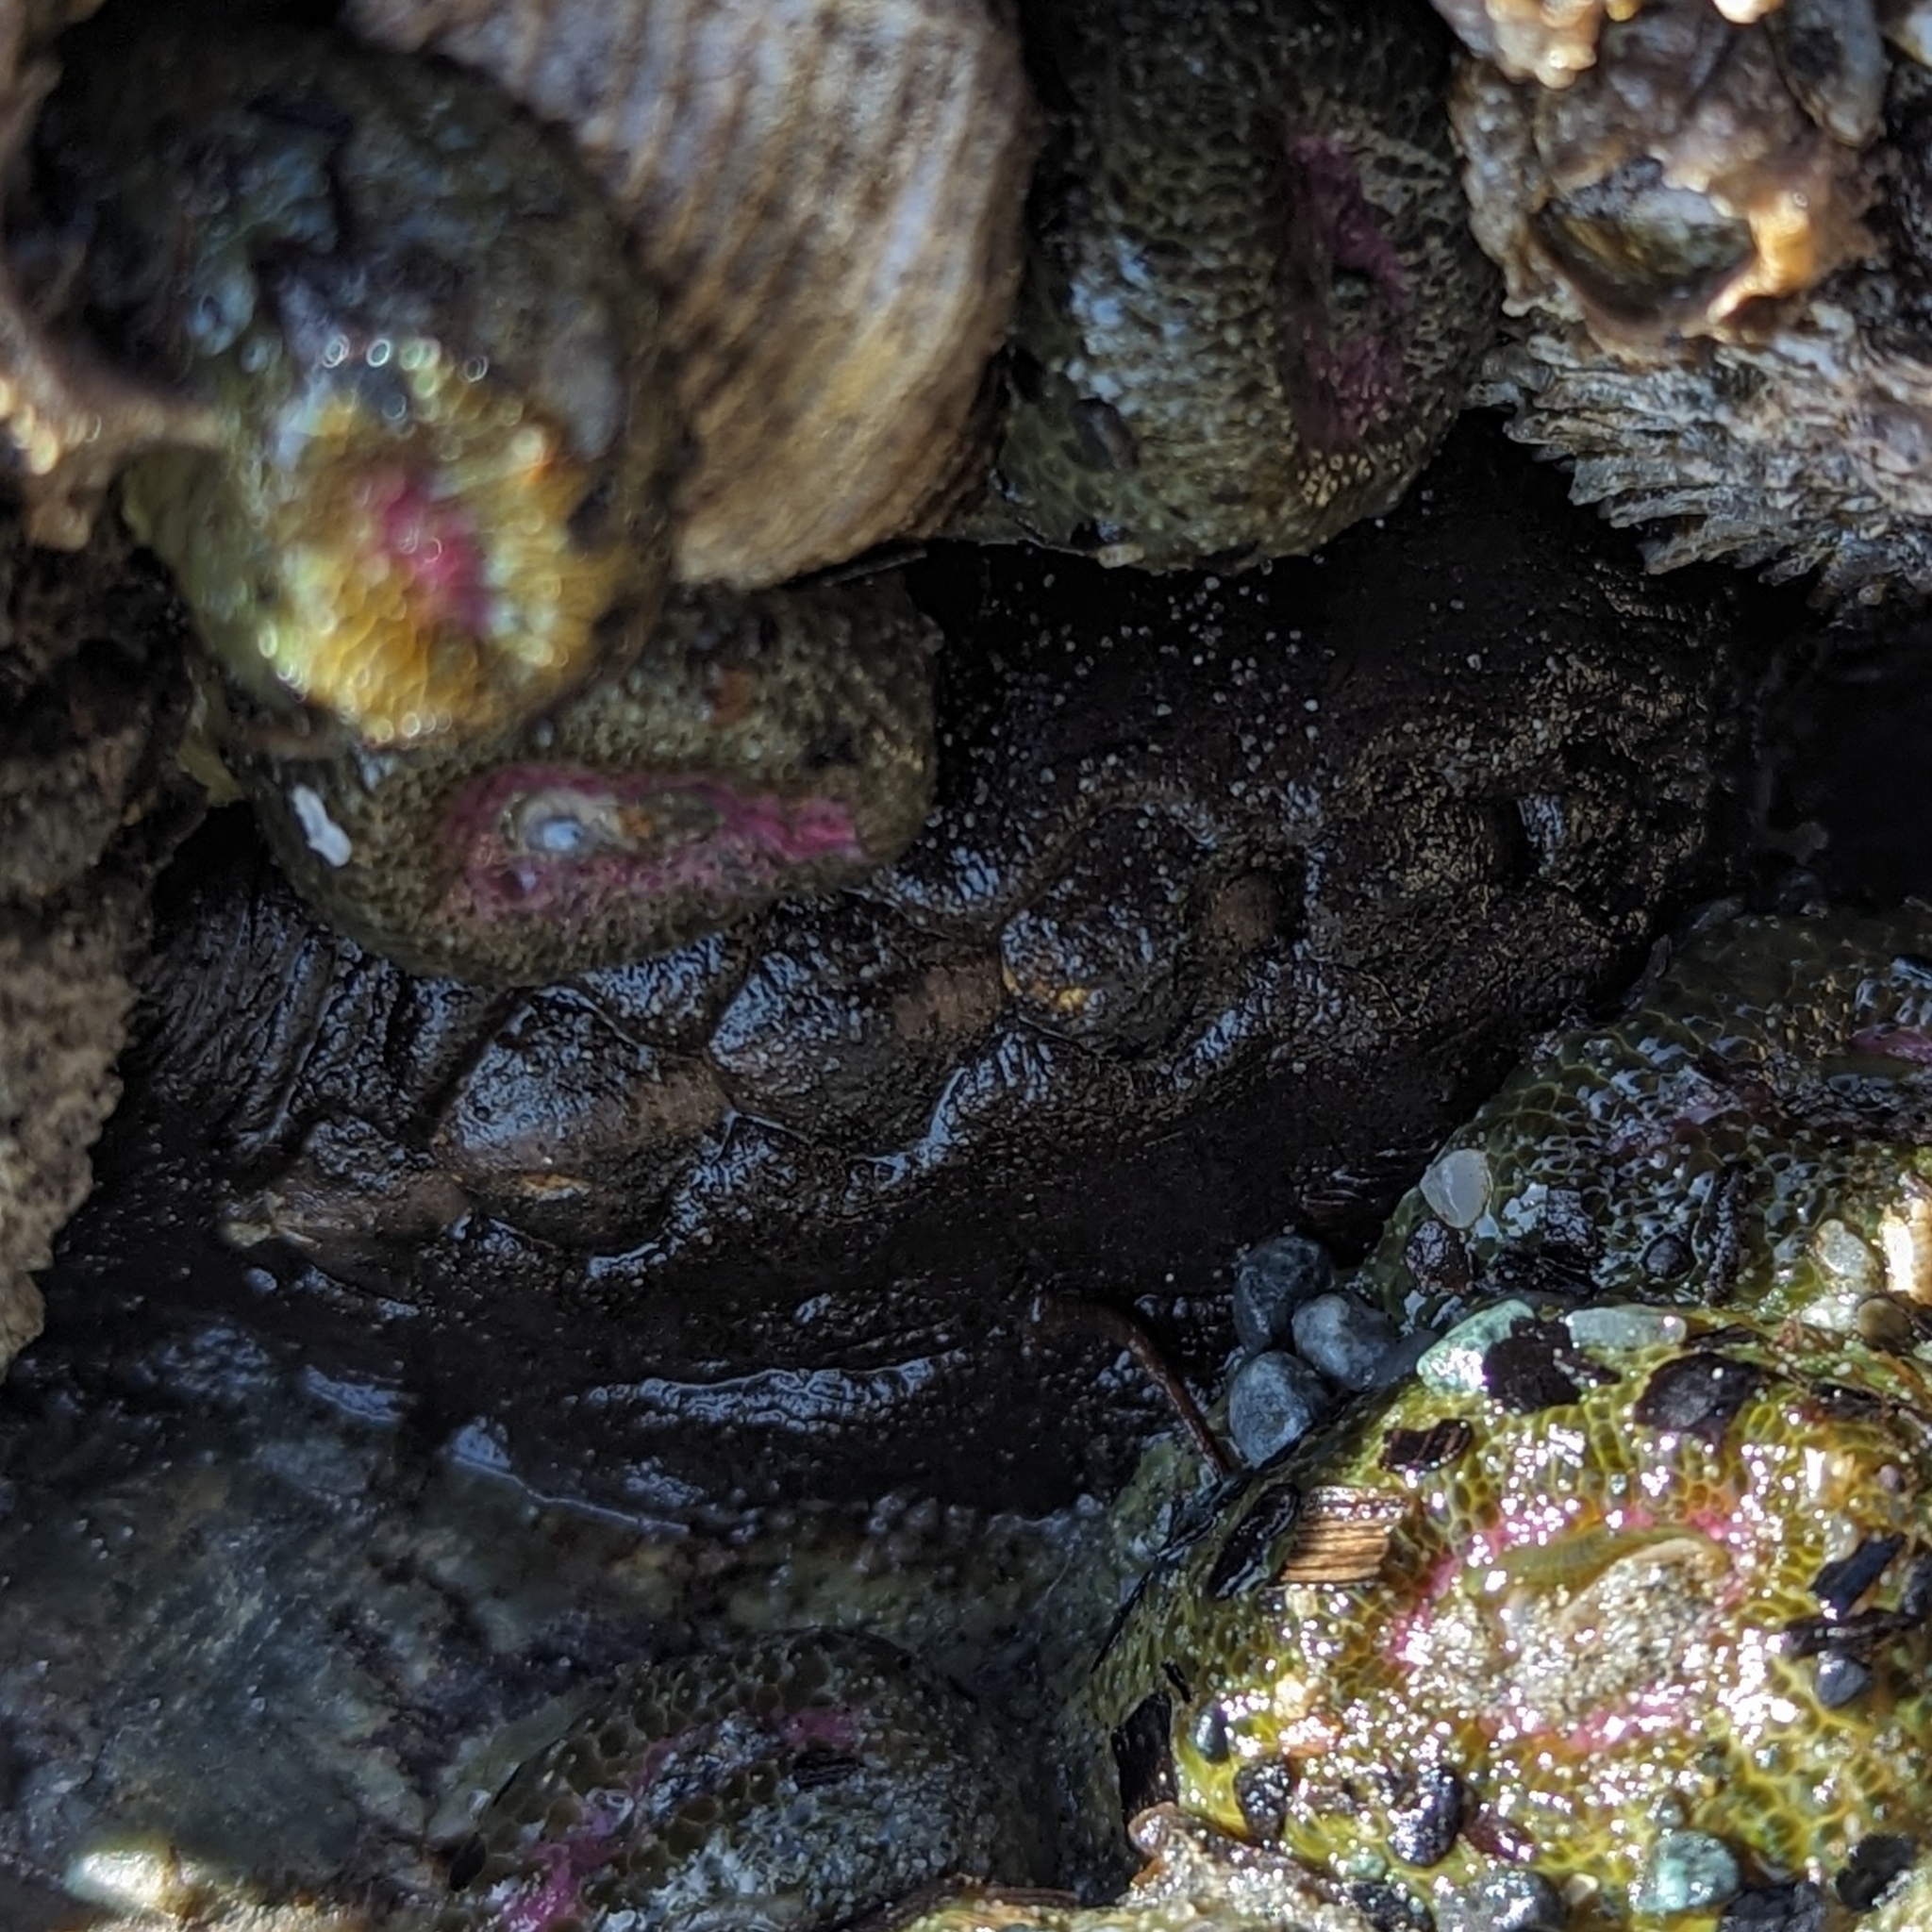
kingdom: Animalia
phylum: Mollusca
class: Polyplacophora
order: Chitonida
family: Mopaliidae
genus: Katharina
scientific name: Katharina tunicata
